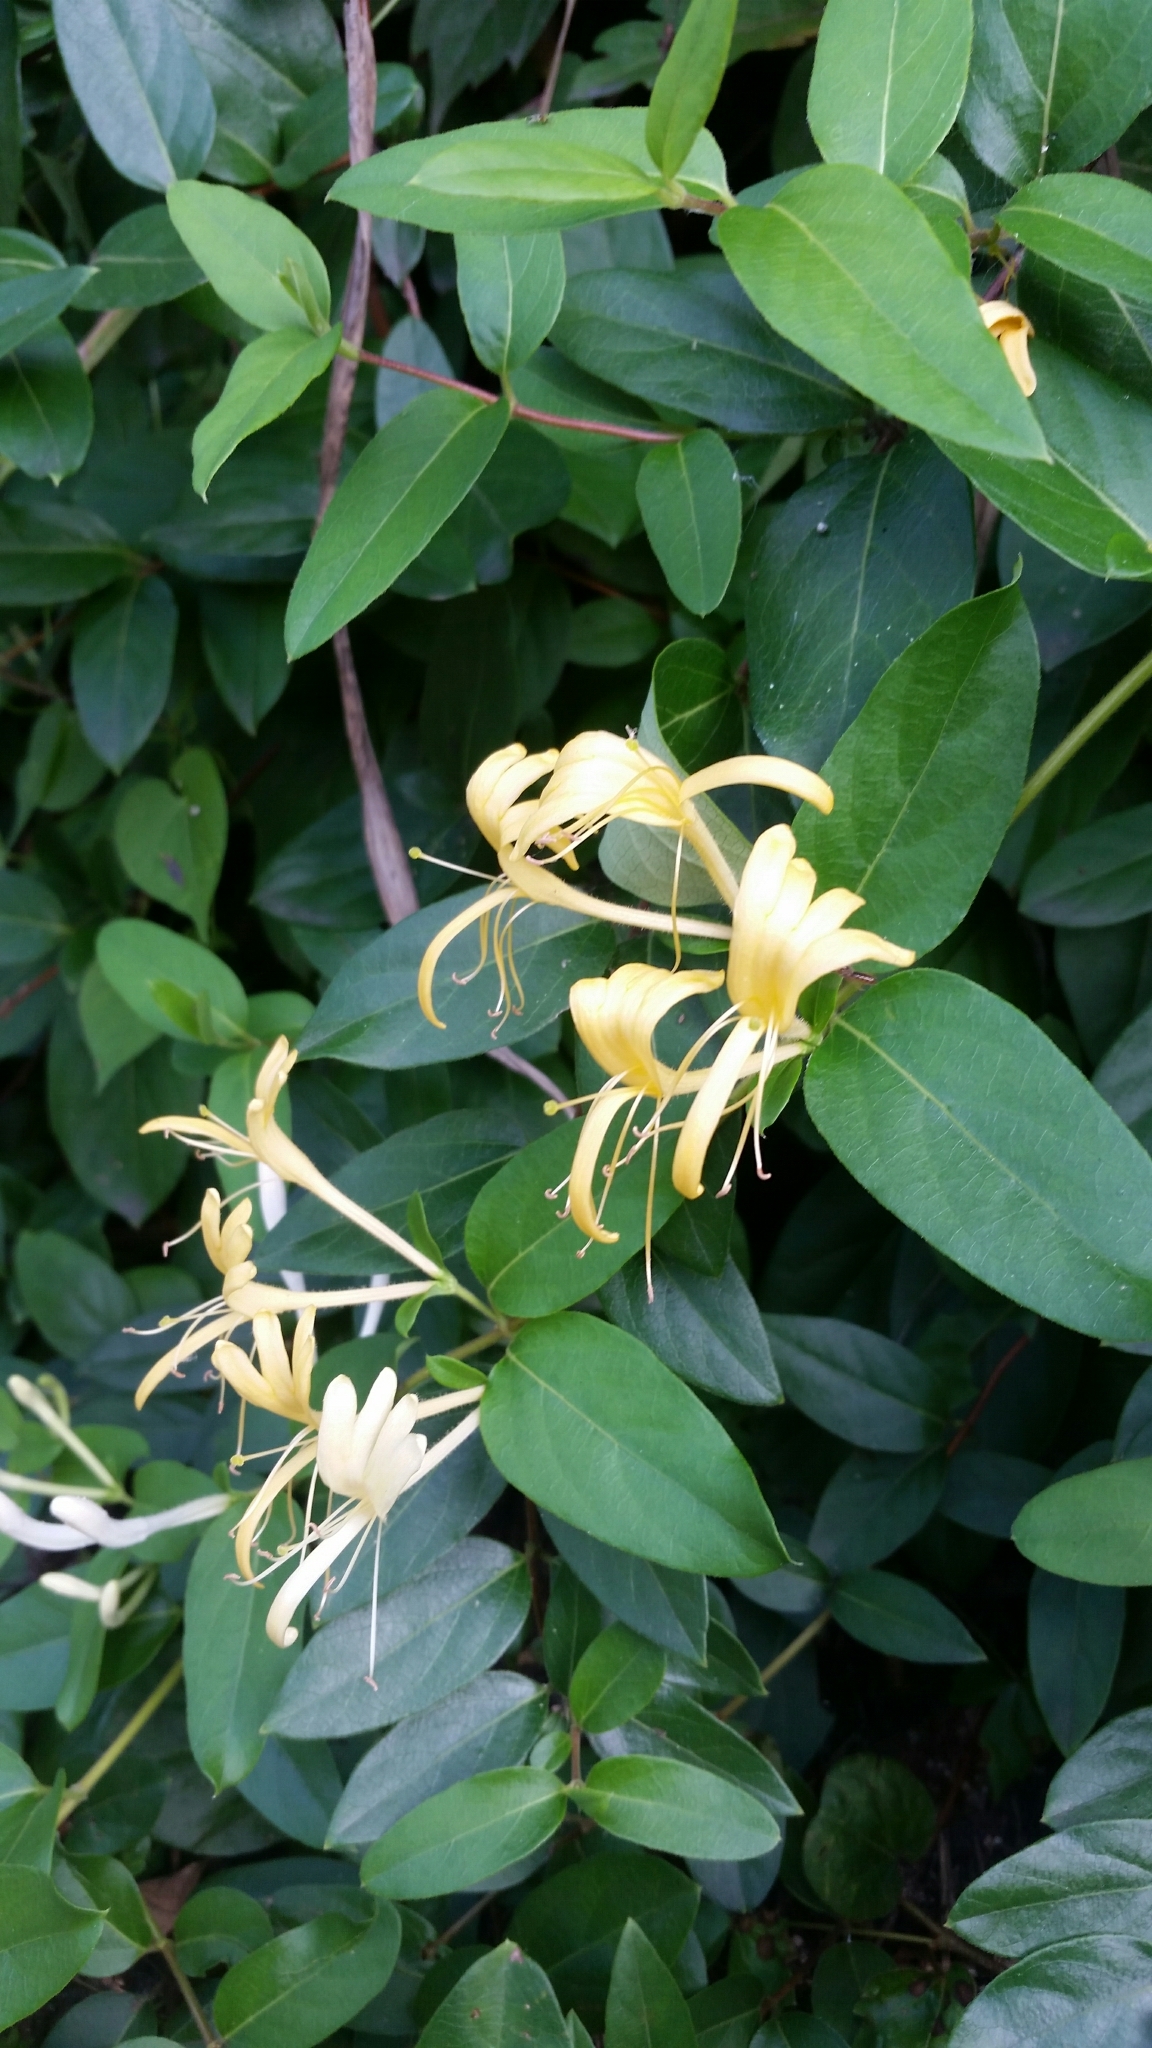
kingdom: Plantae
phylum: Tracheophyta
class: Magnoliopsida
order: Dipsacales
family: Caprifoliaceae
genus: Lonicera
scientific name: Lonicera japonica
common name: Japanese honeysuckle
